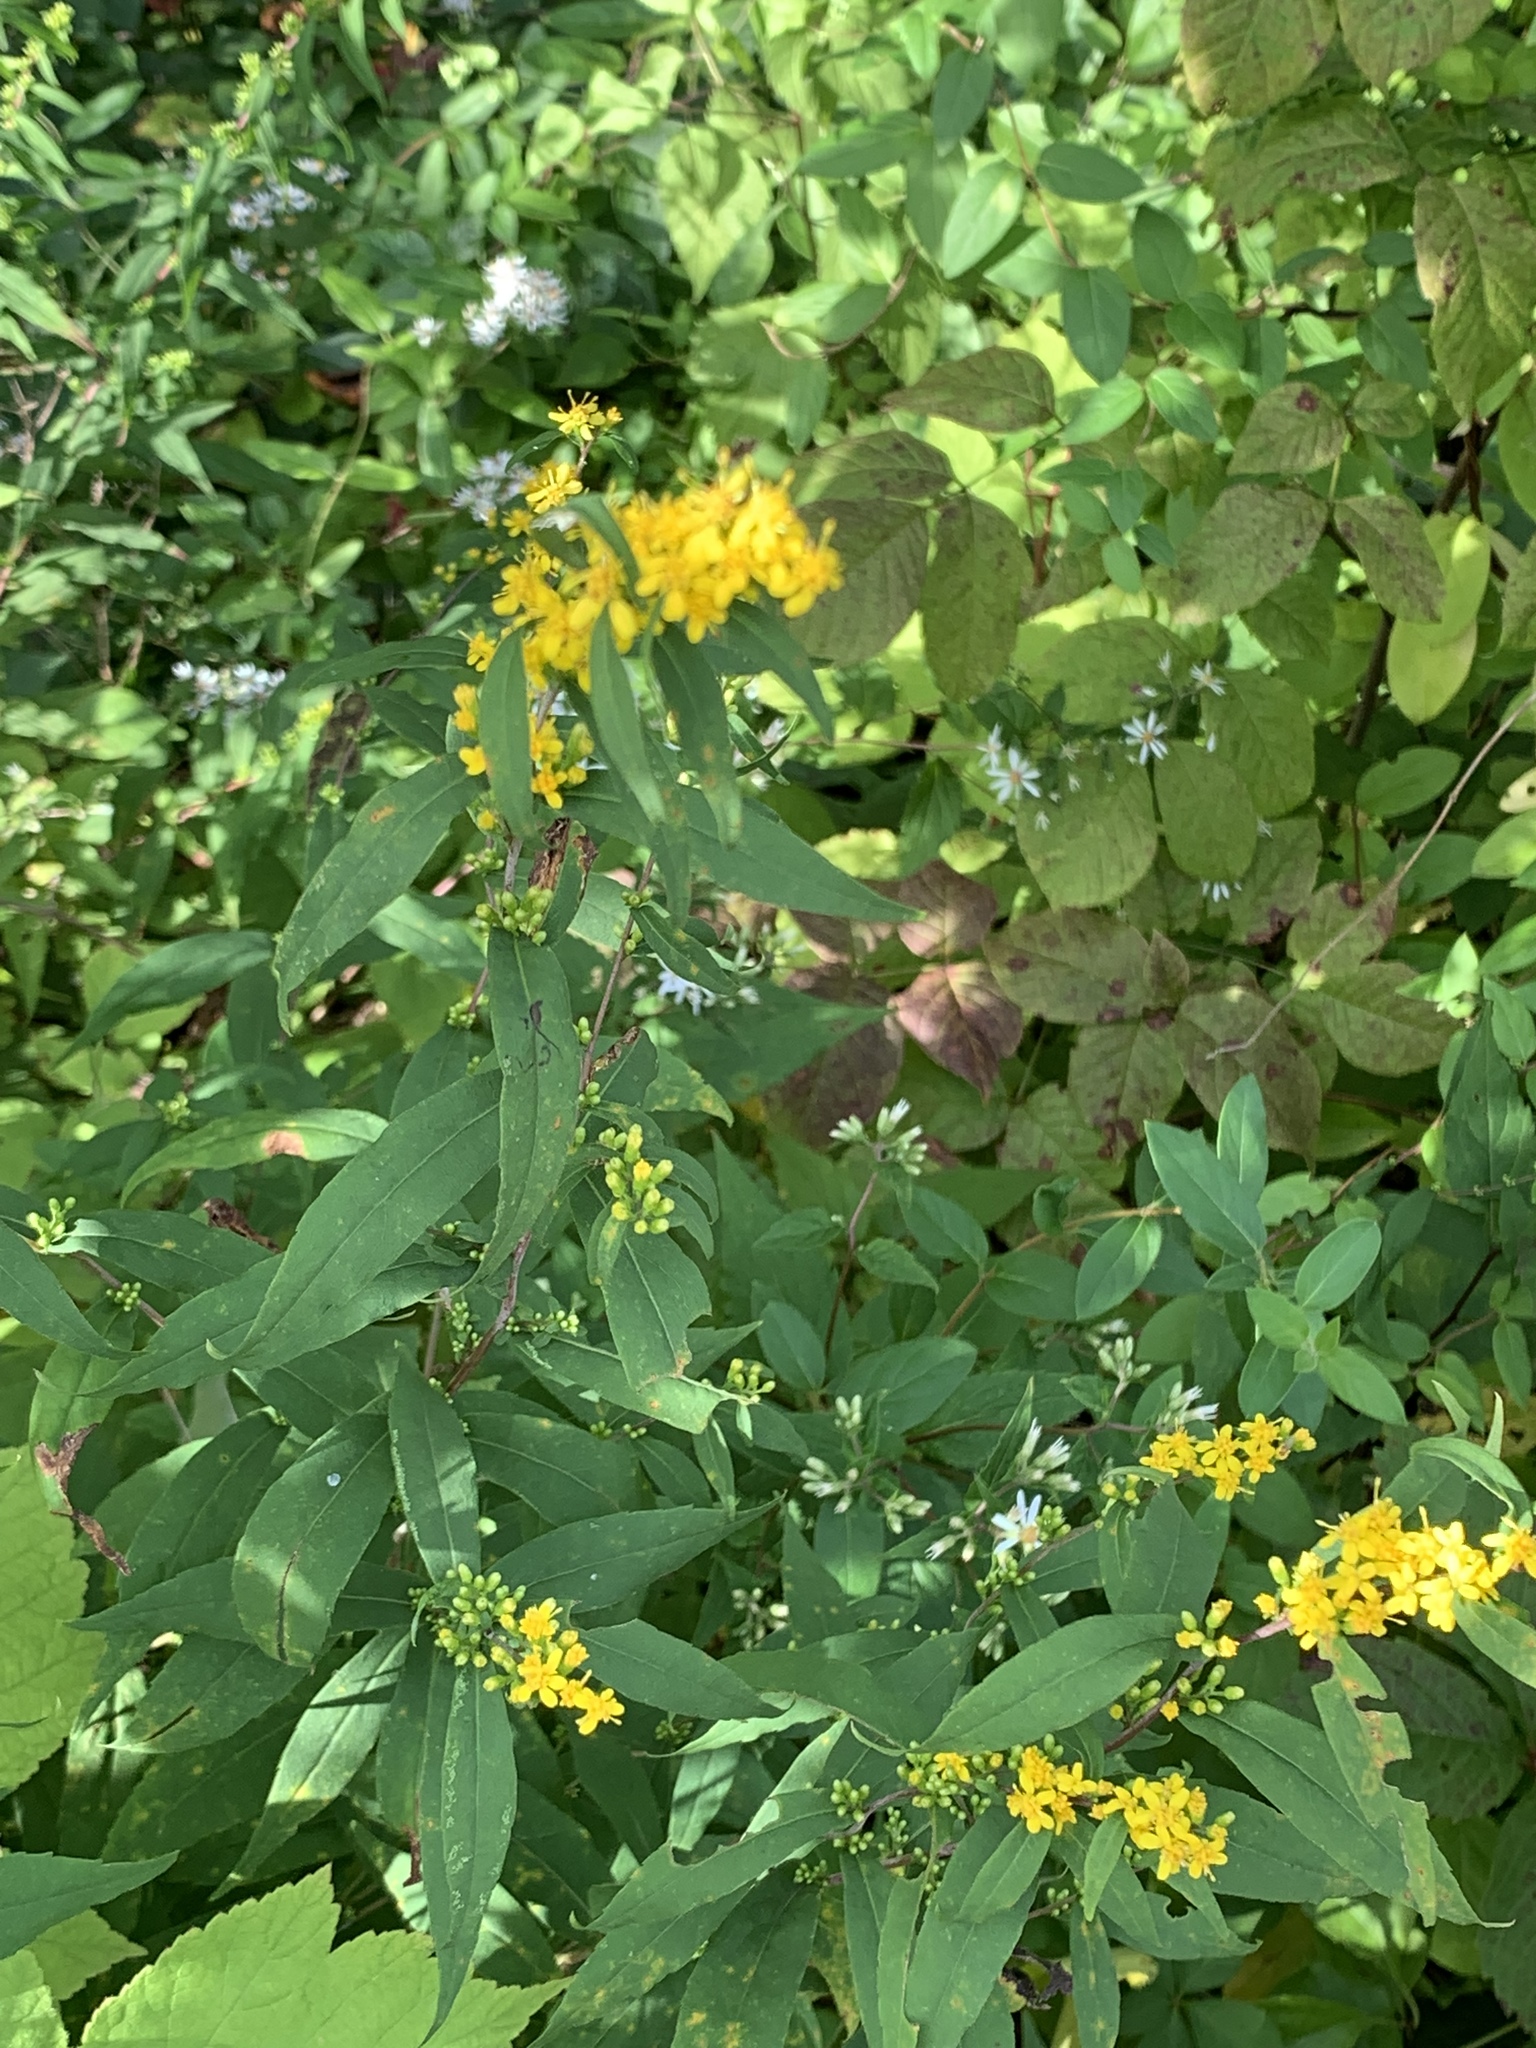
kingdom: Plantae
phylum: Tracheophyta
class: Magnoliopsida
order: Asterales
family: Asteraceae
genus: Solidago
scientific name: Solidago caesia
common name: Woodland goldenrod
